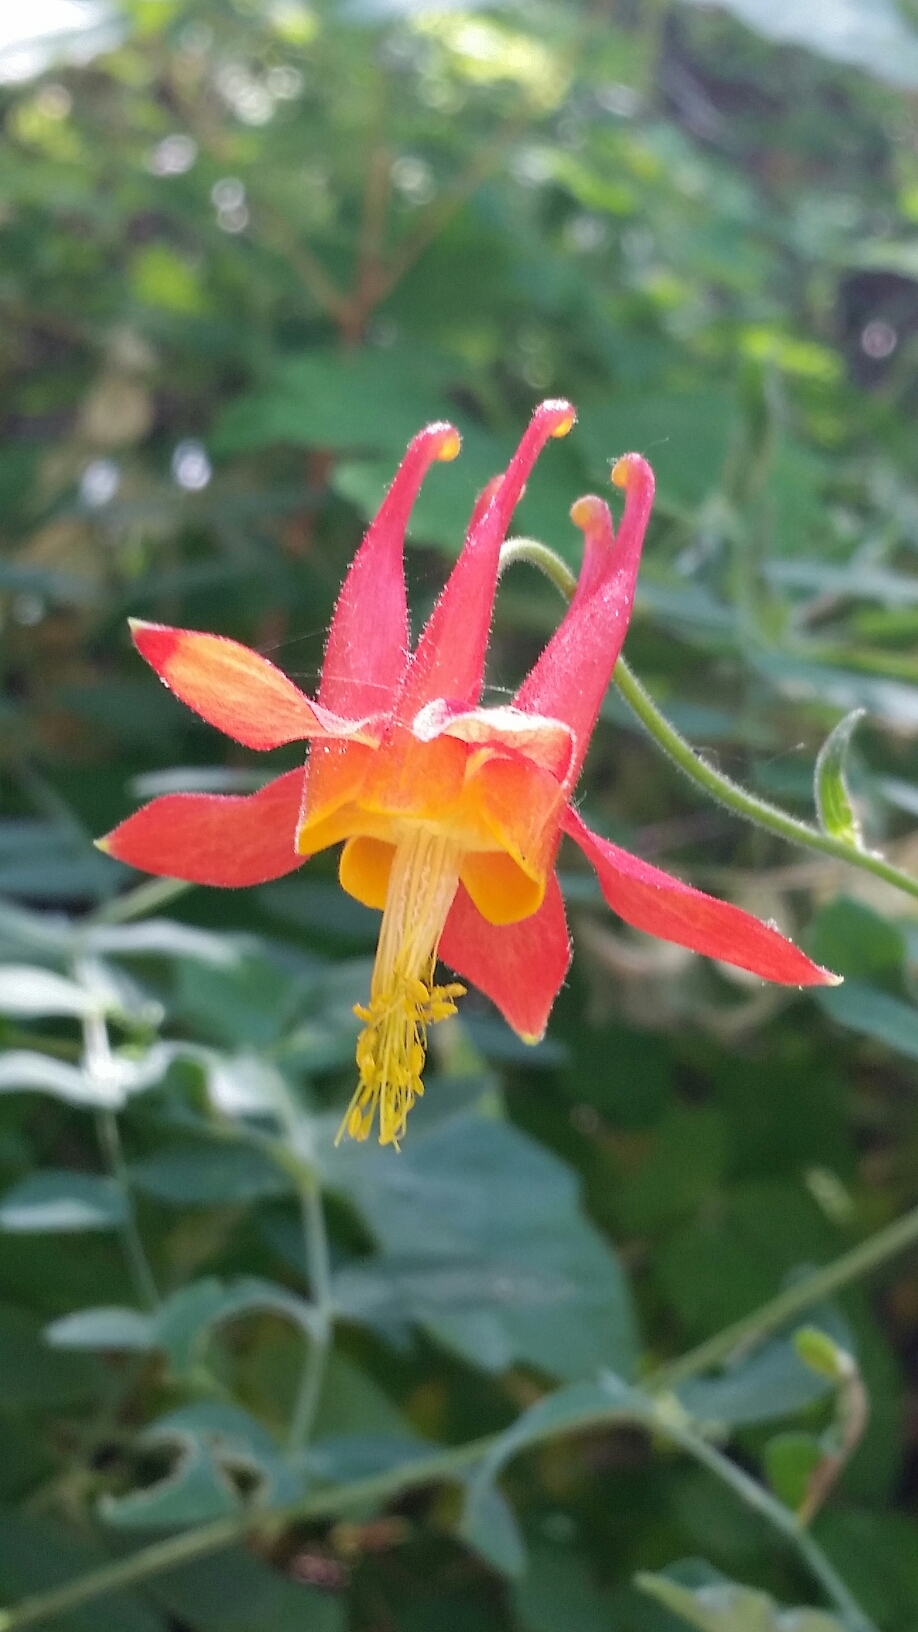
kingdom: Plantae
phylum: Tracheophyta
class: Magnoliopsida
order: Ranunculales
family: Ranunculaceae
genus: Aquilegia
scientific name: Aquilegia formosa
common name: Sitka columbine
